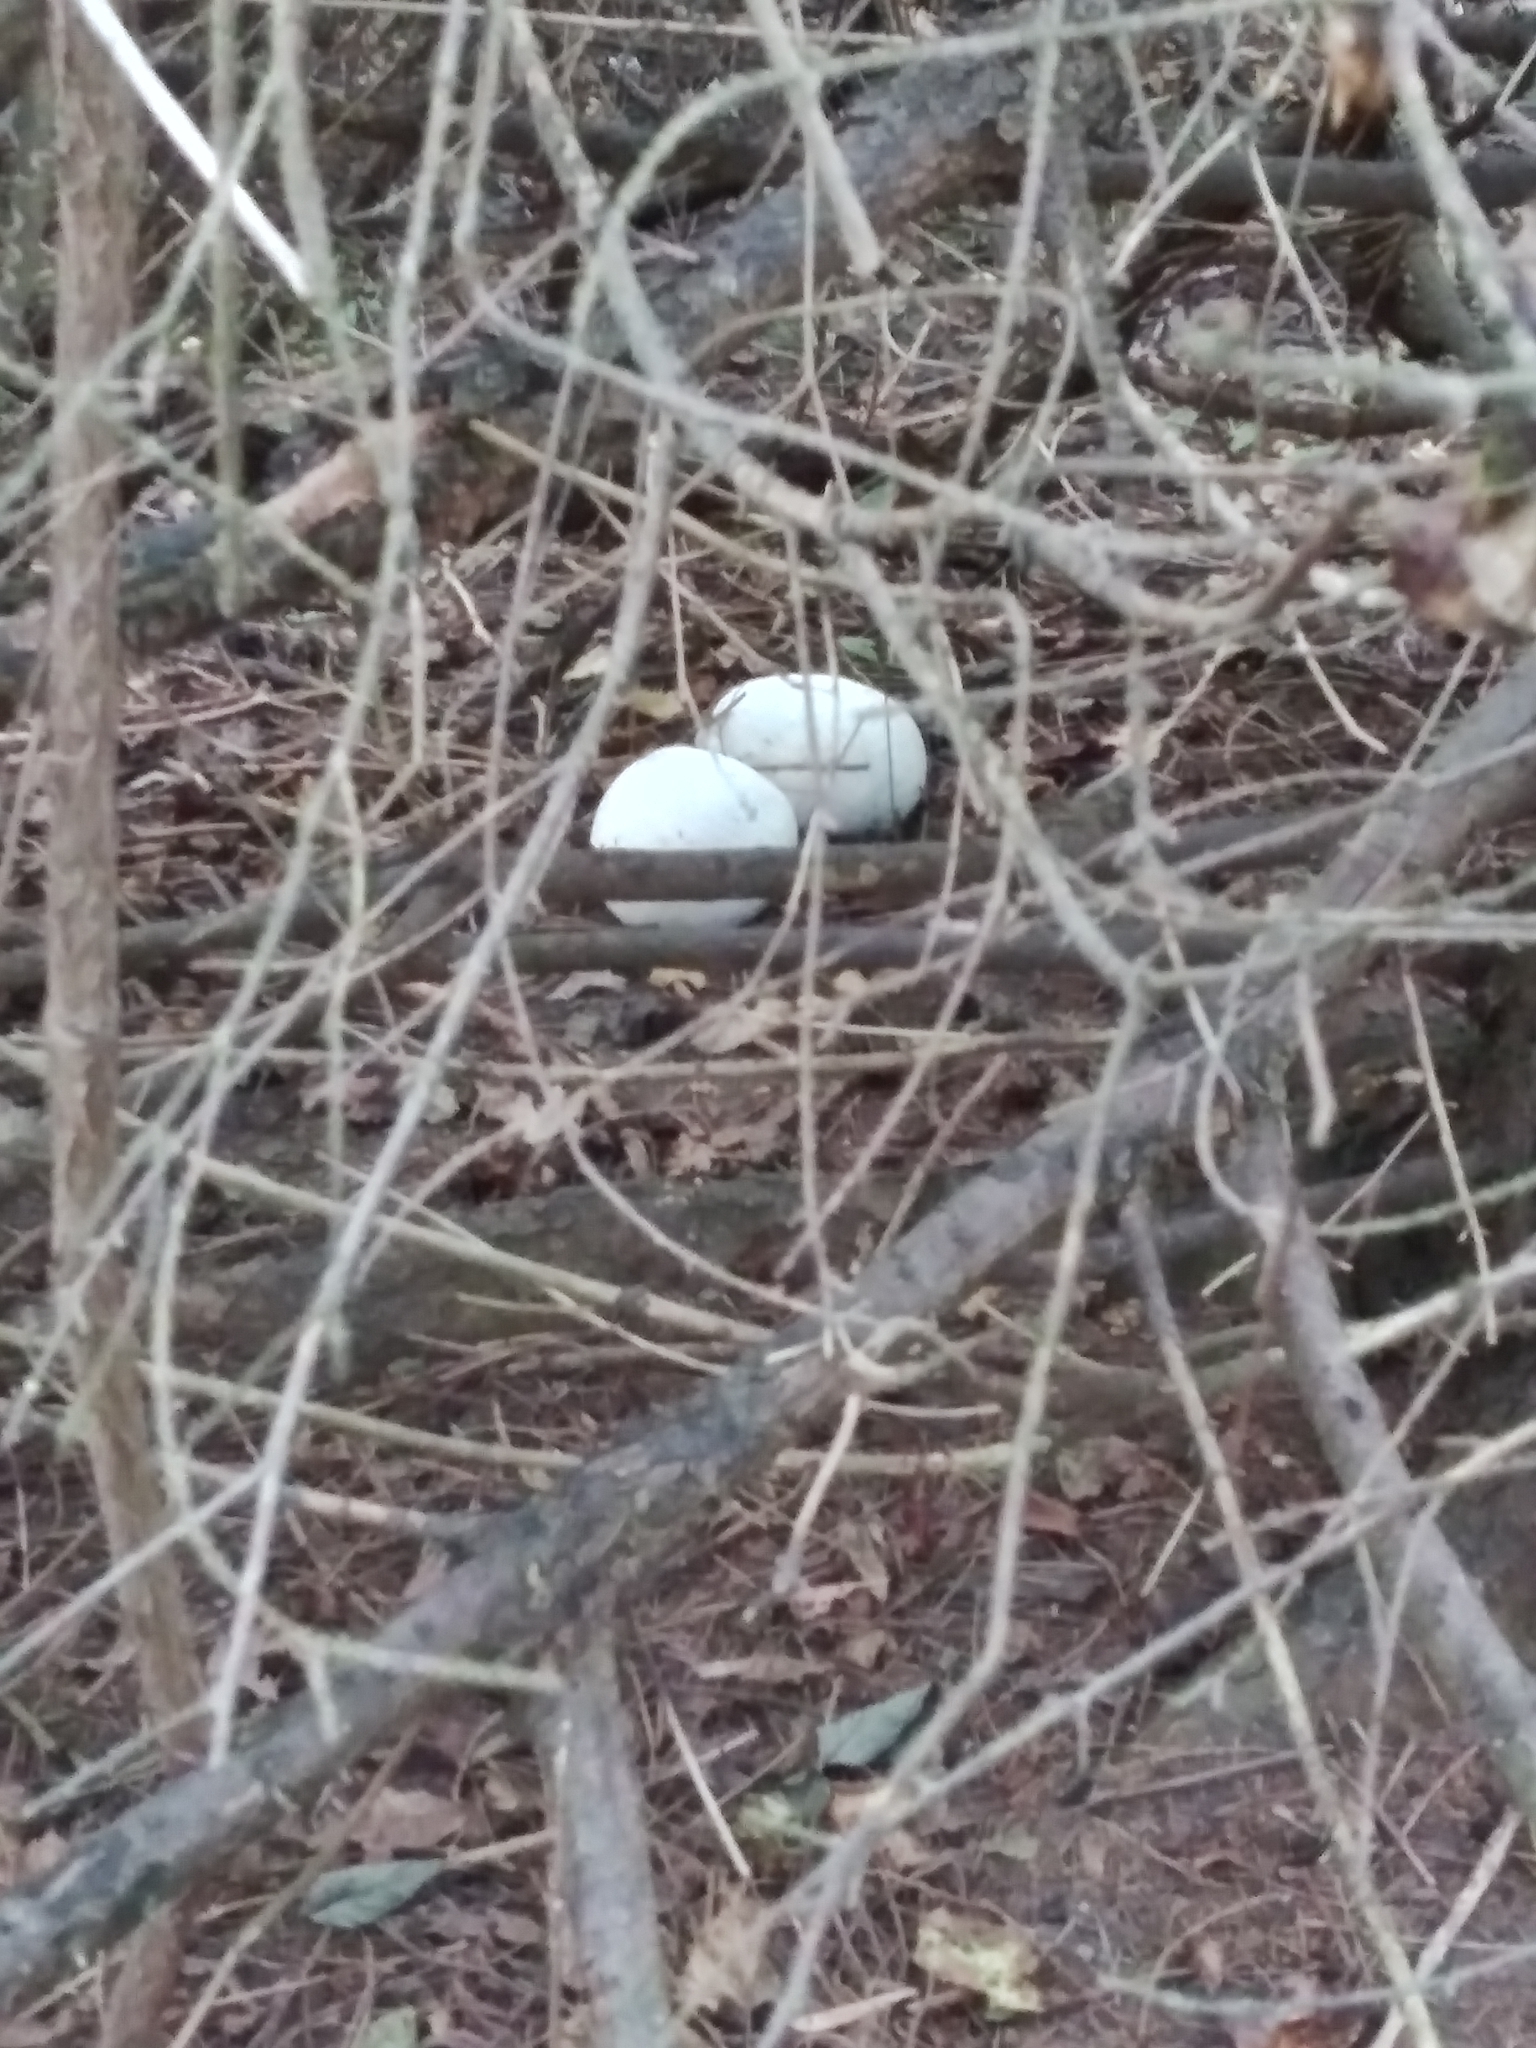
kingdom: Fungi
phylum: Basidiomycota
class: Agaricomycetes
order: Agaricales
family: Lycoperdaceae
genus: Calvatia
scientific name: Calvatia gigantea
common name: Giant puffball
